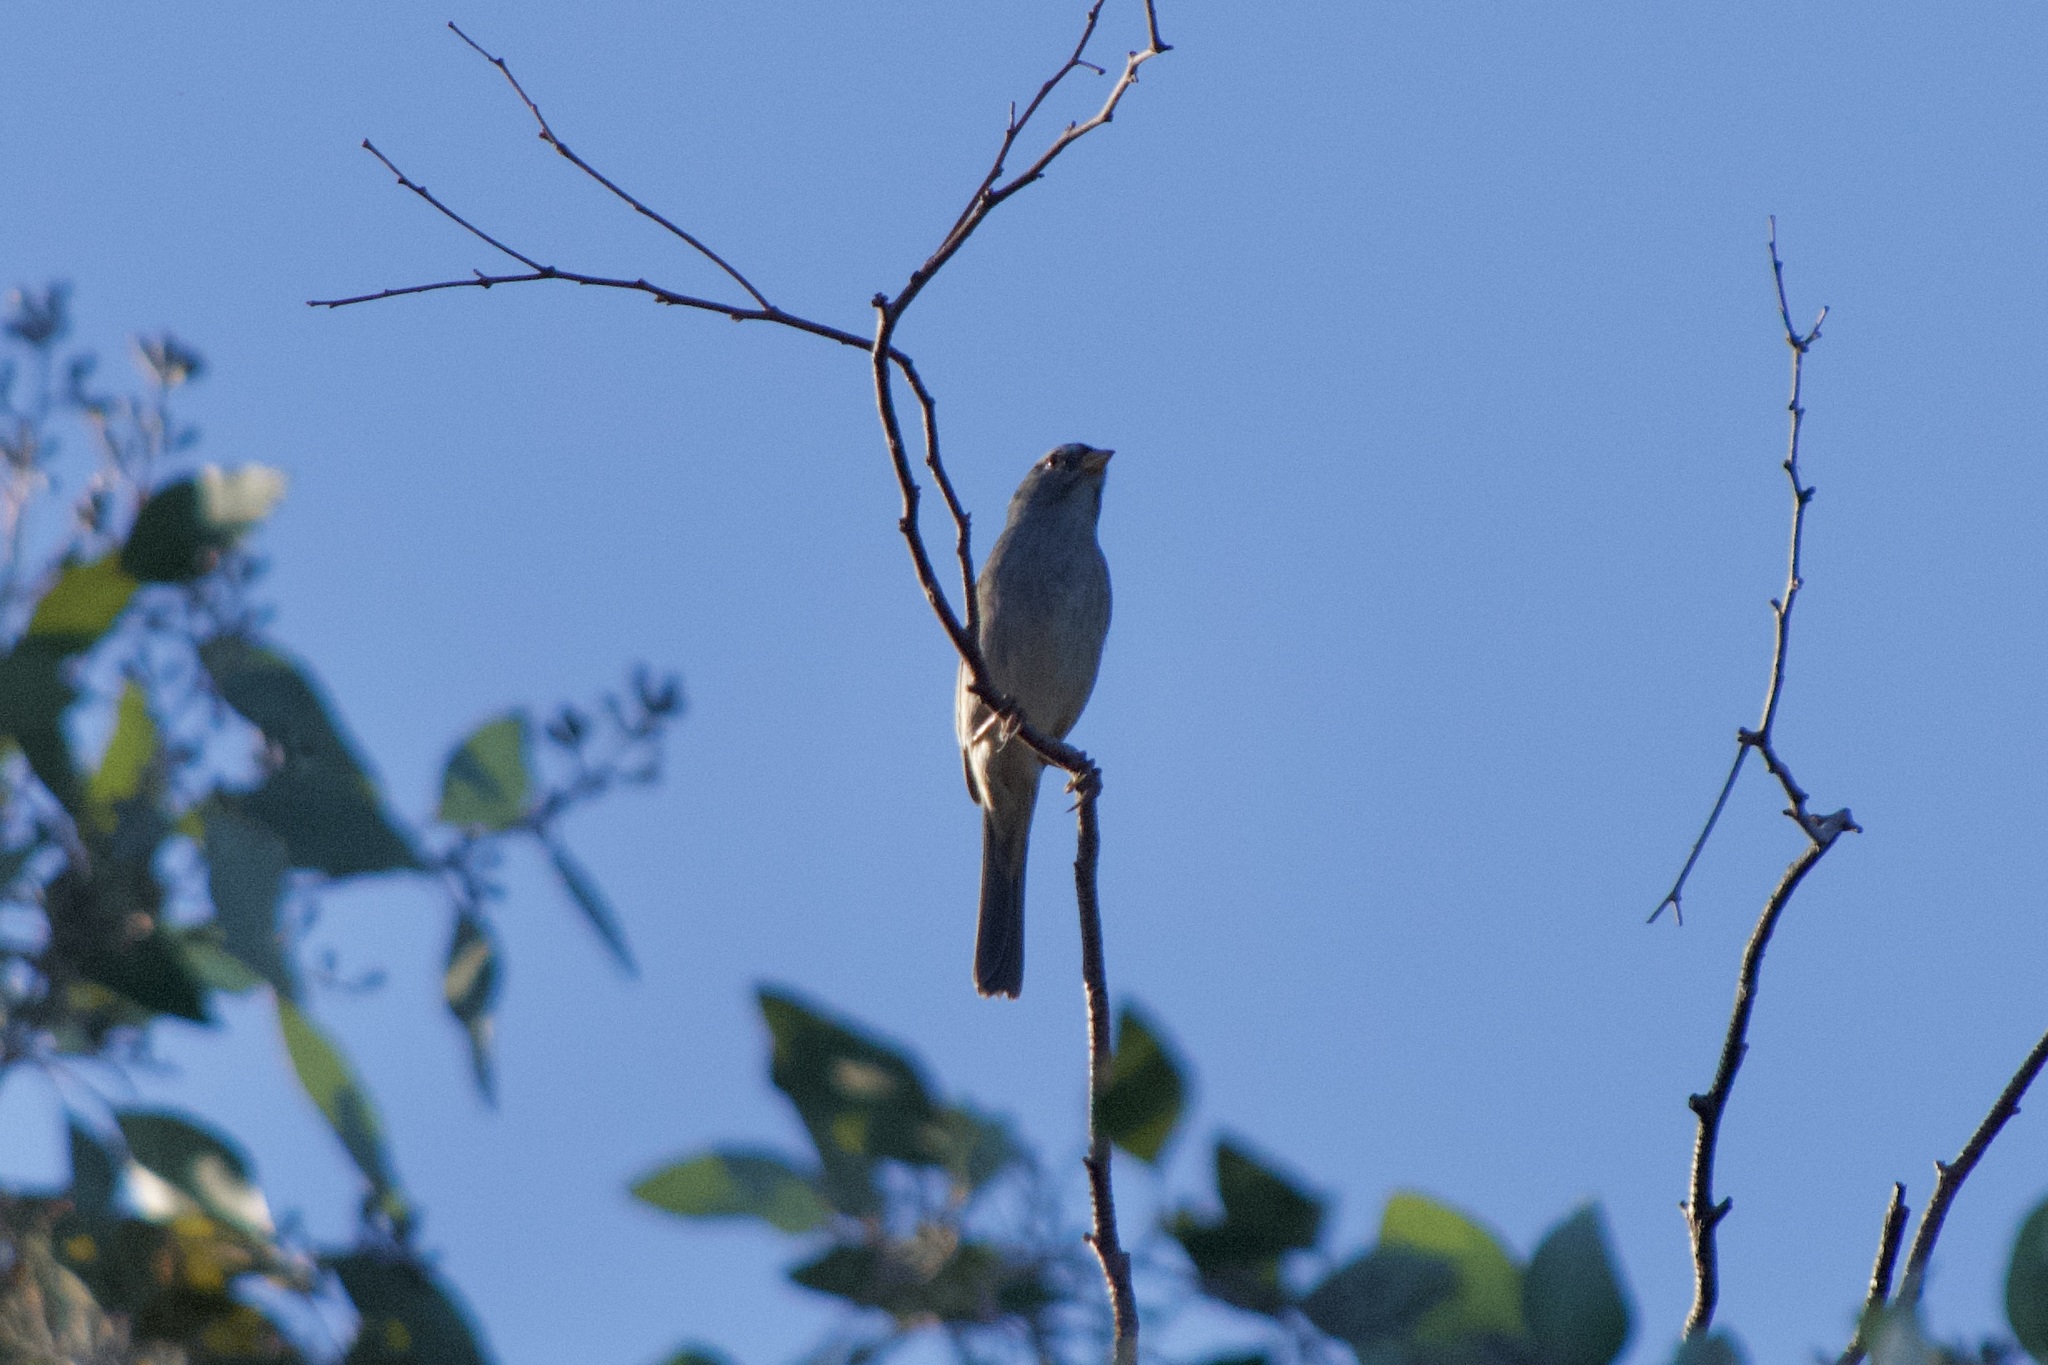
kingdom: Animalia
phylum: Chordata
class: Aves
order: Passeriformes
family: Passerellidae
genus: Spizella
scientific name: Spizella atrogularis
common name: Black-chinned sparrow
